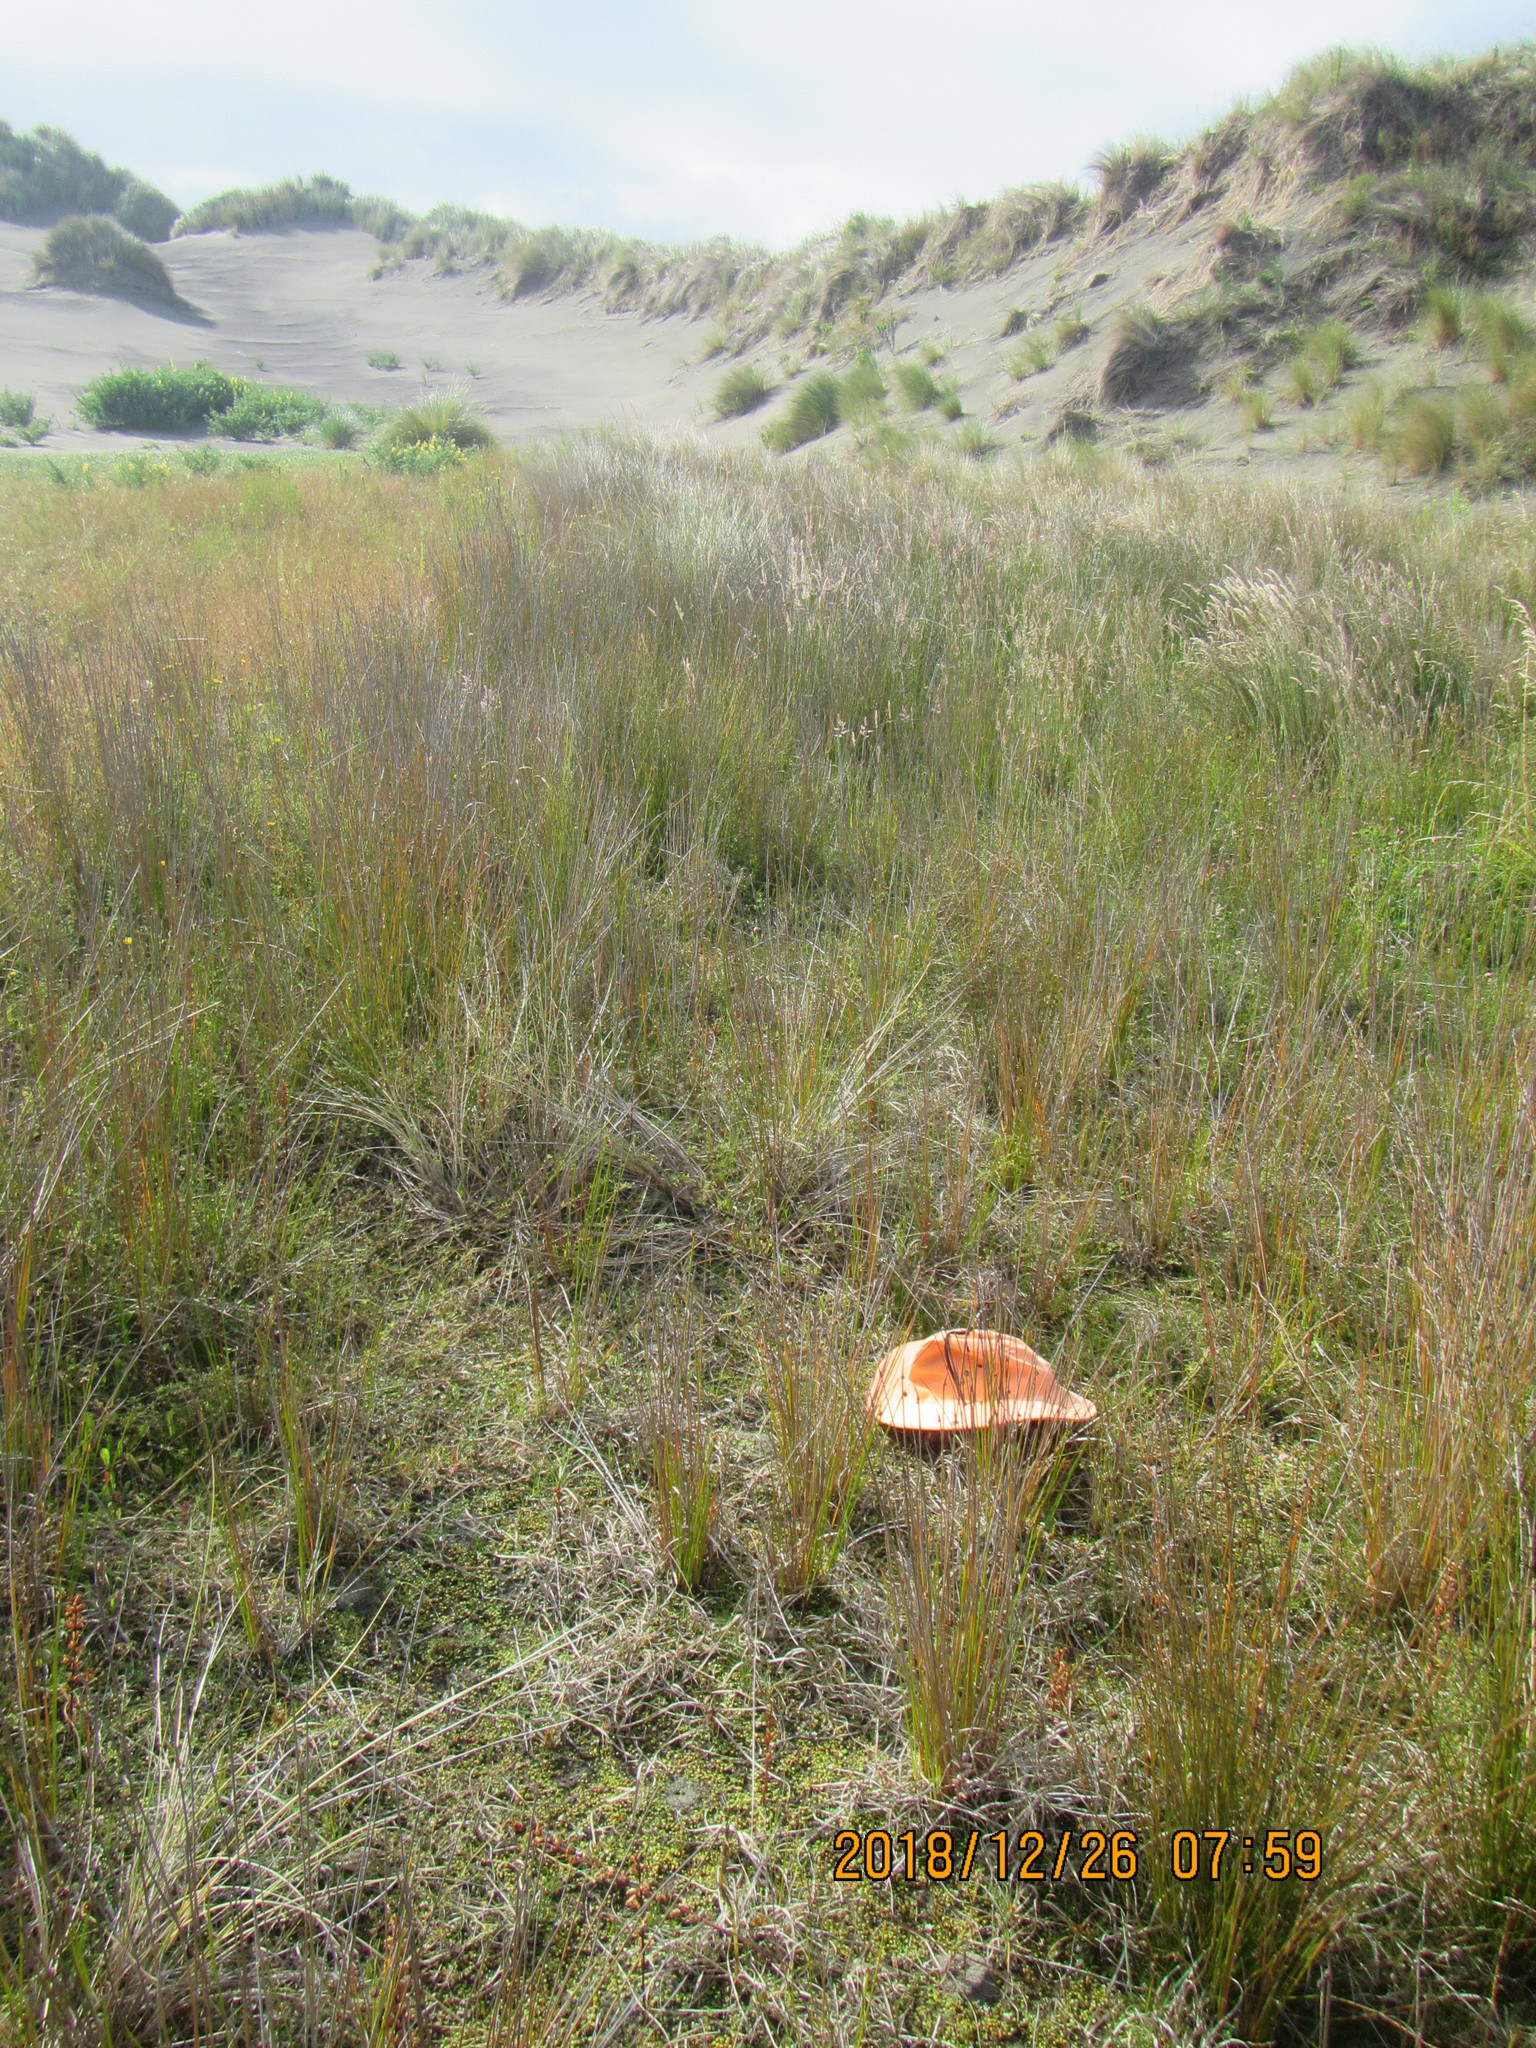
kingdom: Plantae
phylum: Tracheophyta
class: Magnoliopsida
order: Asterales
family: Goodeniaceae
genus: Goodenia
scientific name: Goodenia heenanii
